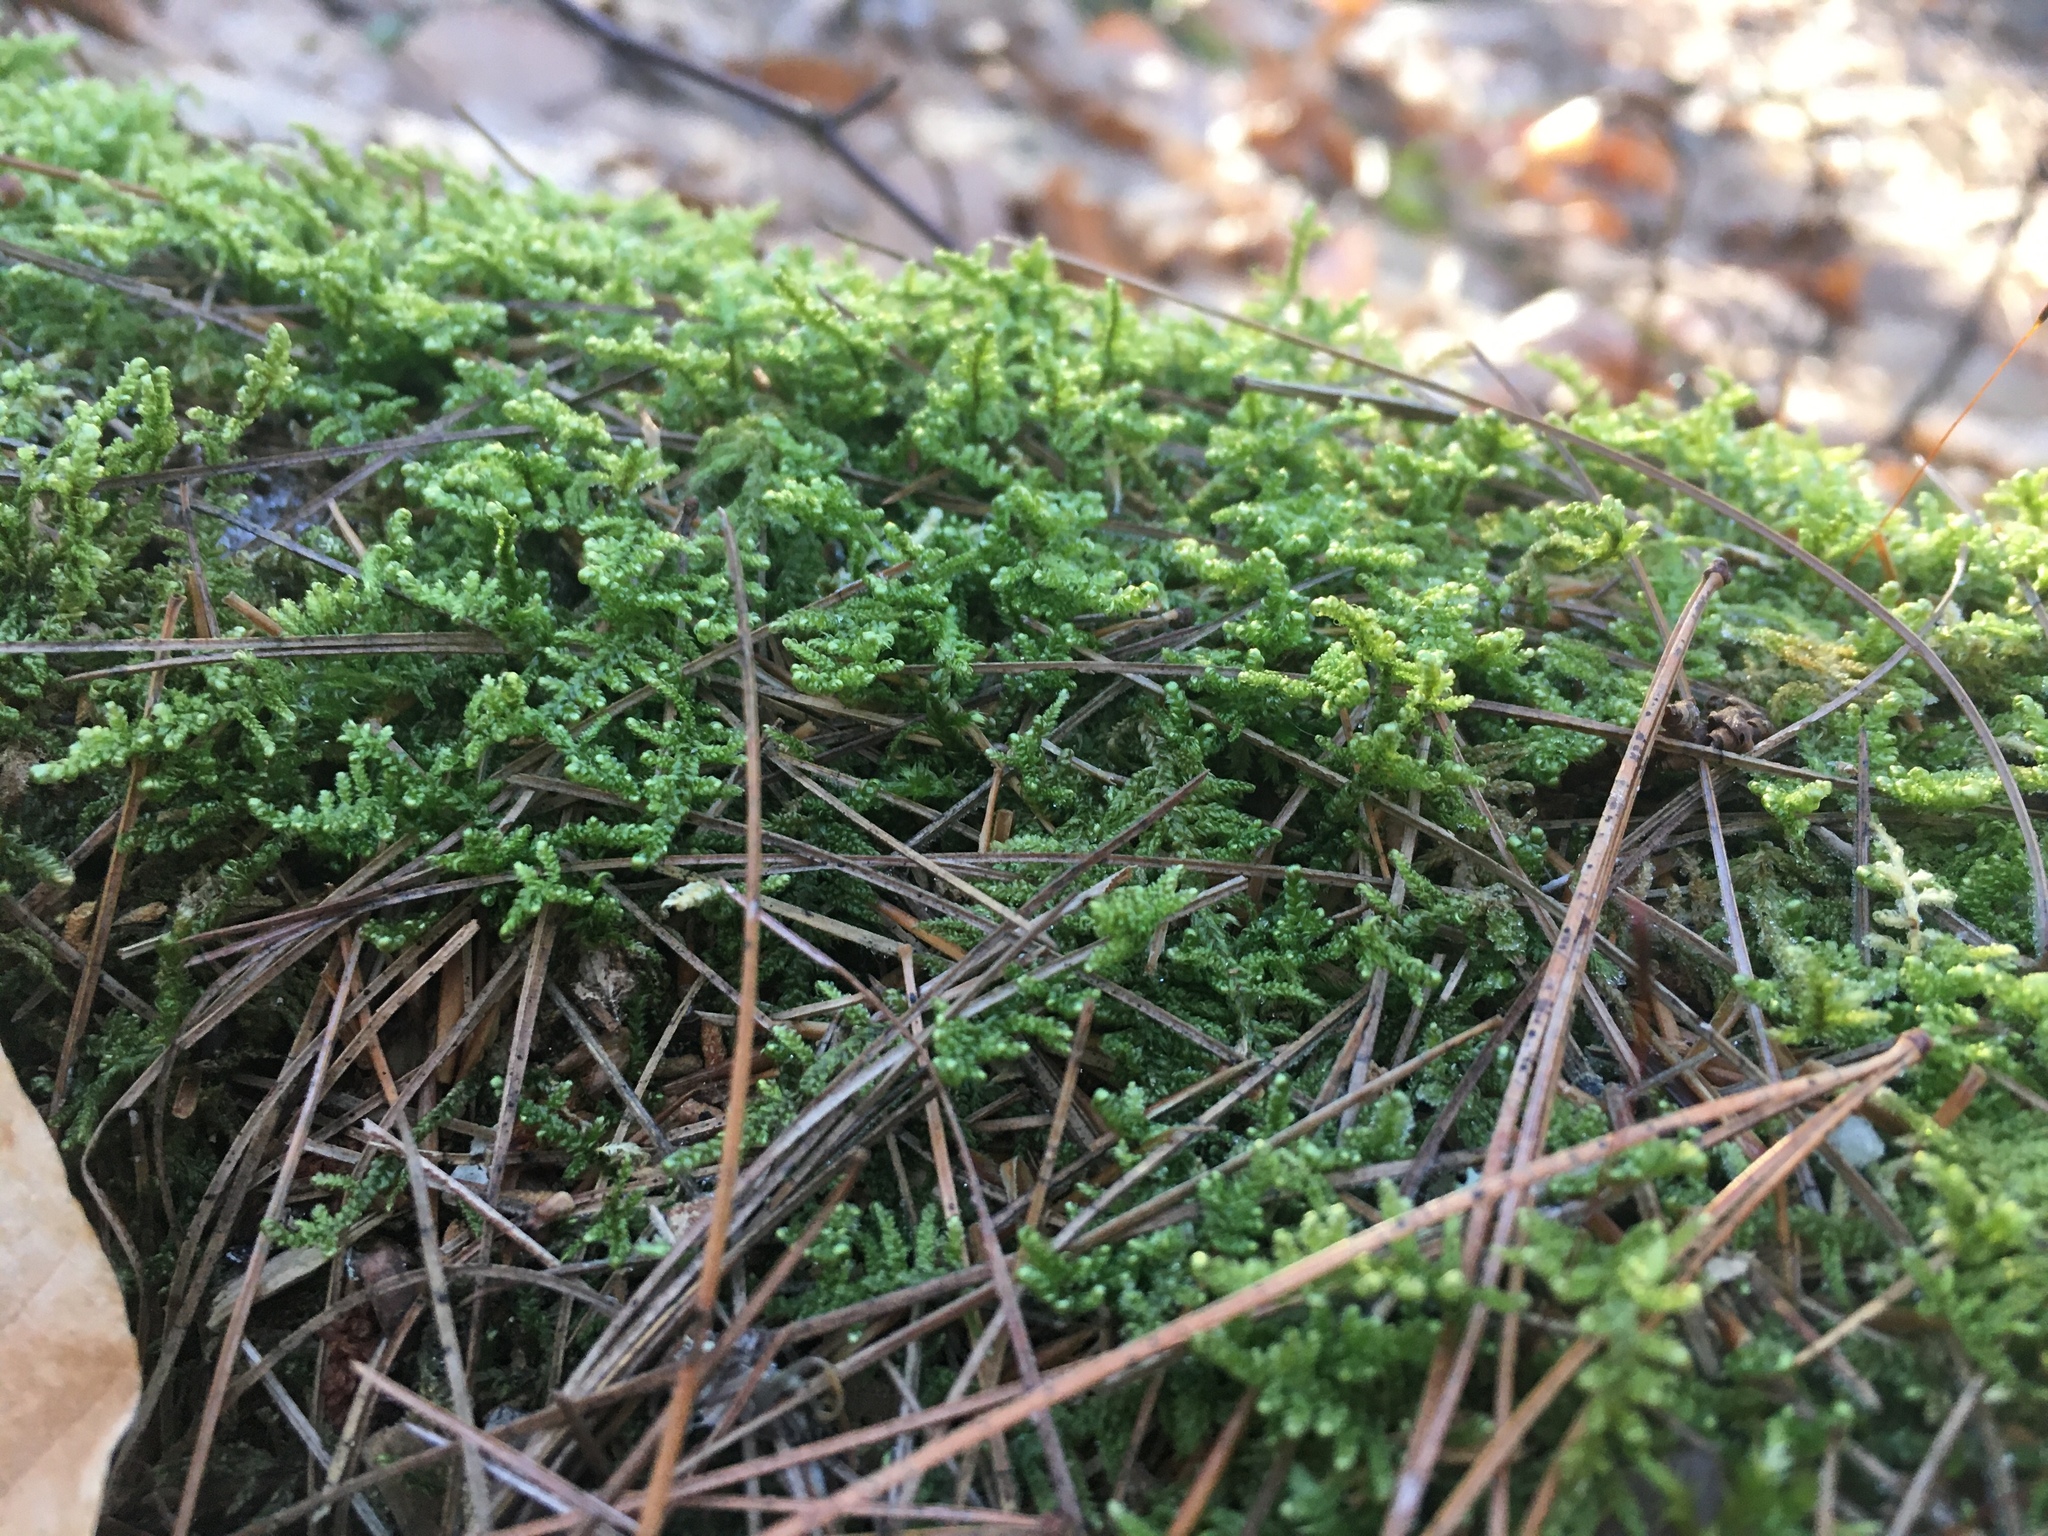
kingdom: Plantae
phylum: Bryophyta
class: Bryopsida
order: Hypnales
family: Callicladiaceae
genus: Callicladium
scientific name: Callicladium imponens
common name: Brocade moss
